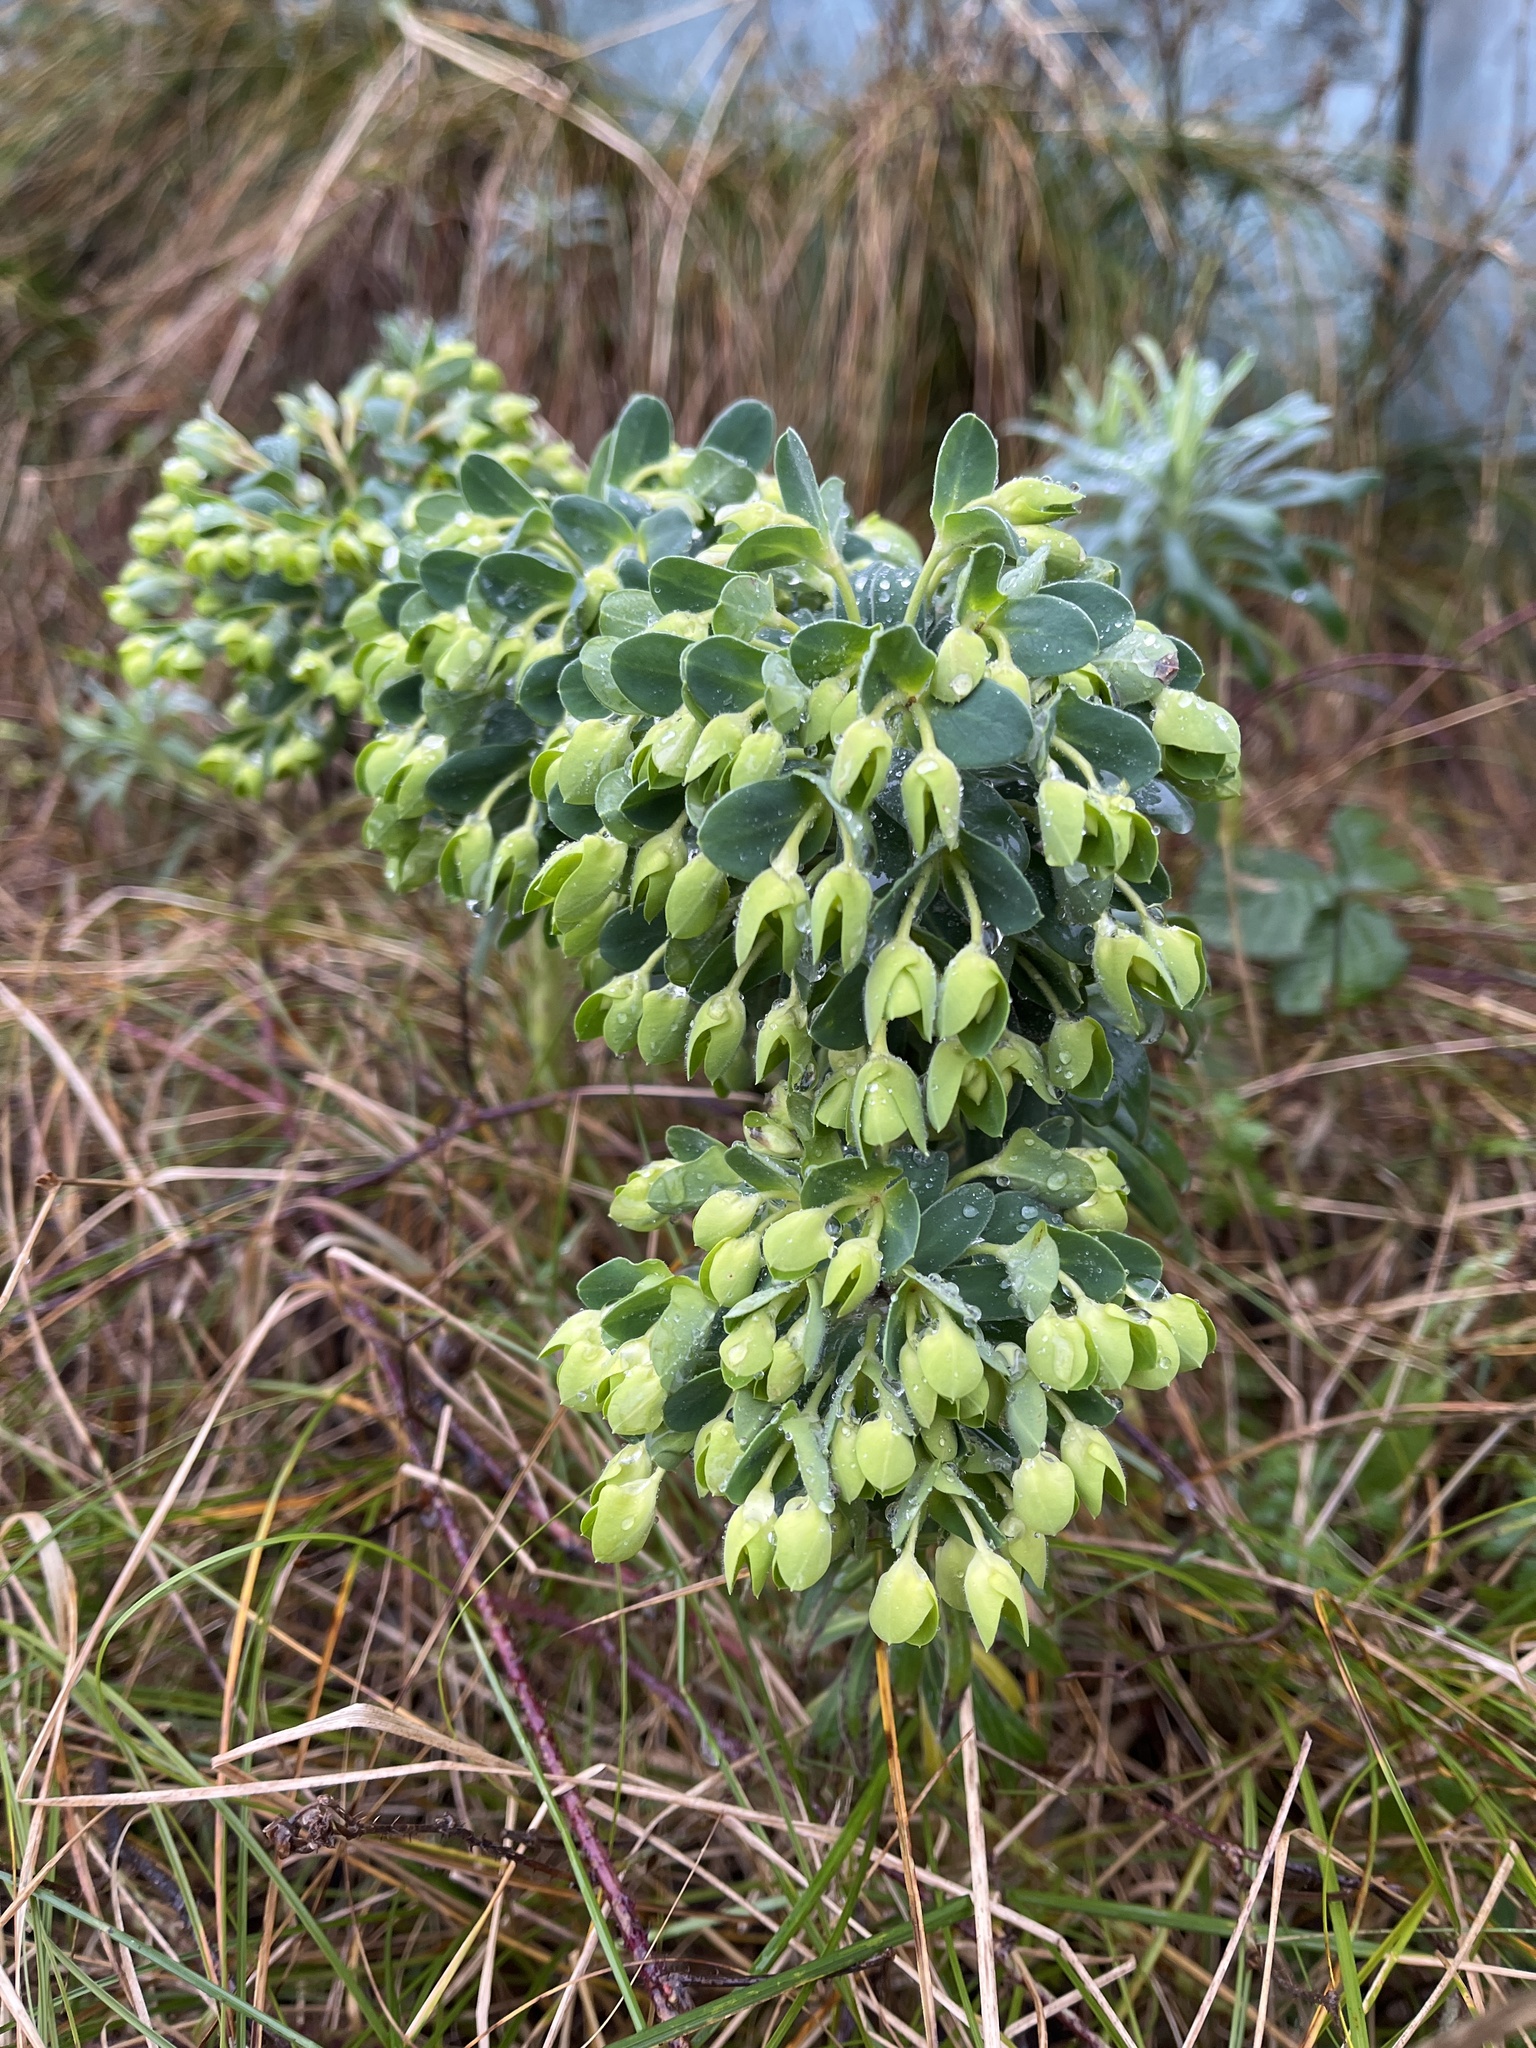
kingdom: Plantae
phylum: Tracheophyta
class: Magnoliopsida
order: Malpighiales
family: Euphorbiaceae
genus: Euphorbia
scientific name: Euphorbia characias
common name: Mediterranean spurge
